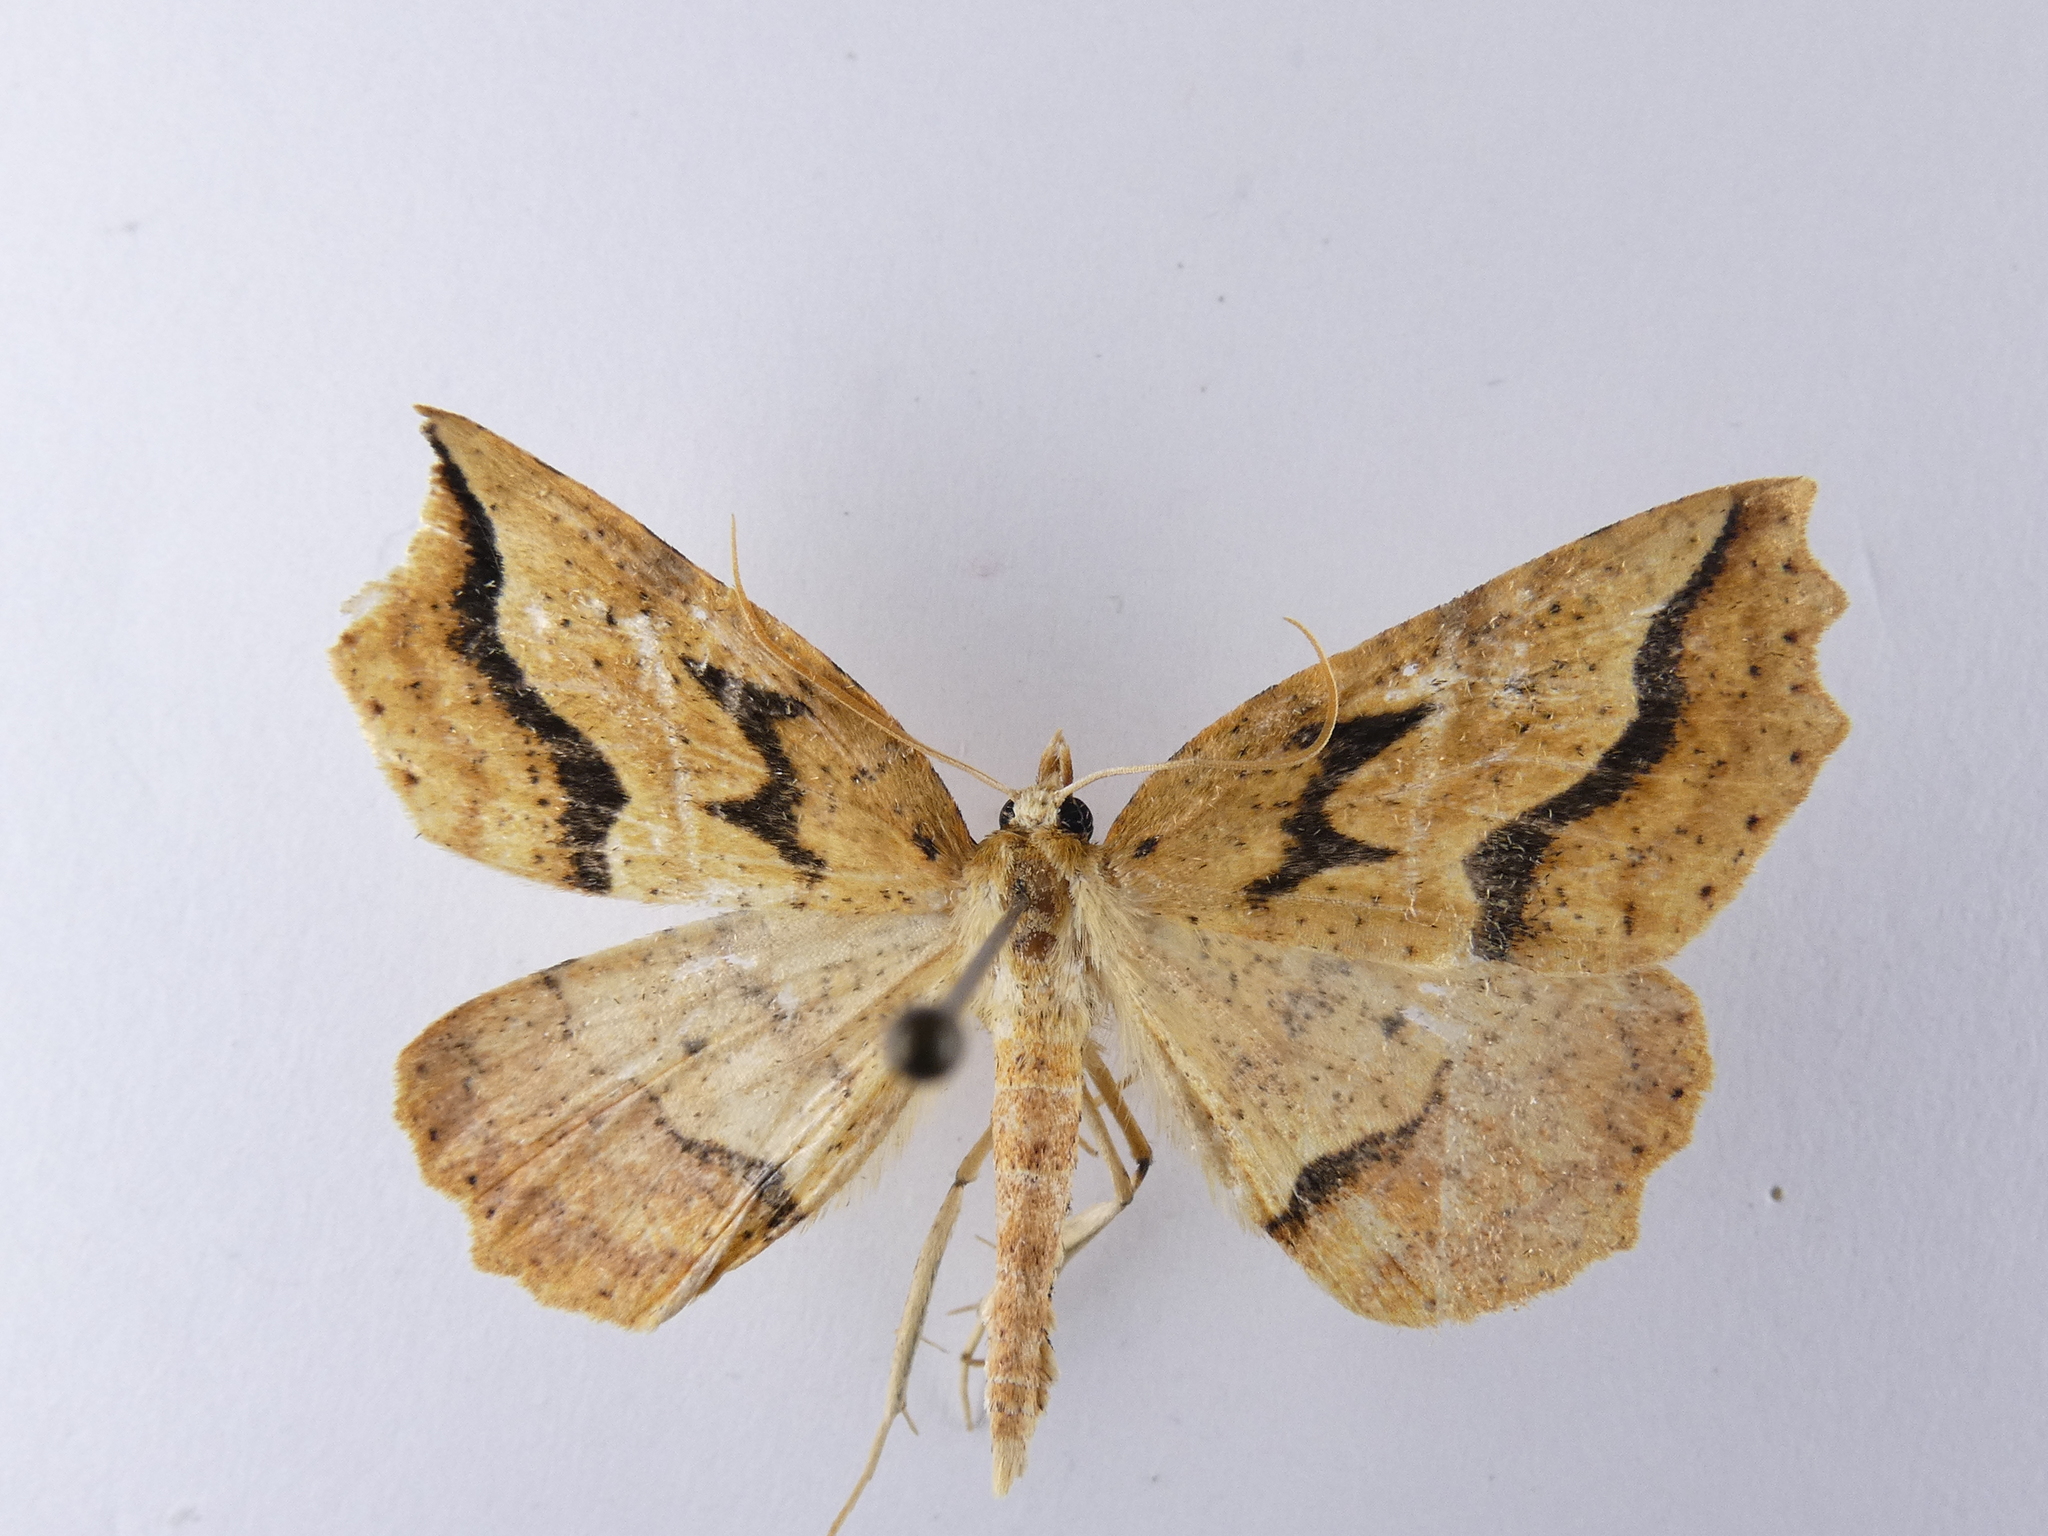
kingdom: Animalia
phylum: Arthropoda
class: Insecta
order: Lepidoptera
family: Geometridae
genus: Ischalis
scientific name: Ischalis variabilis
